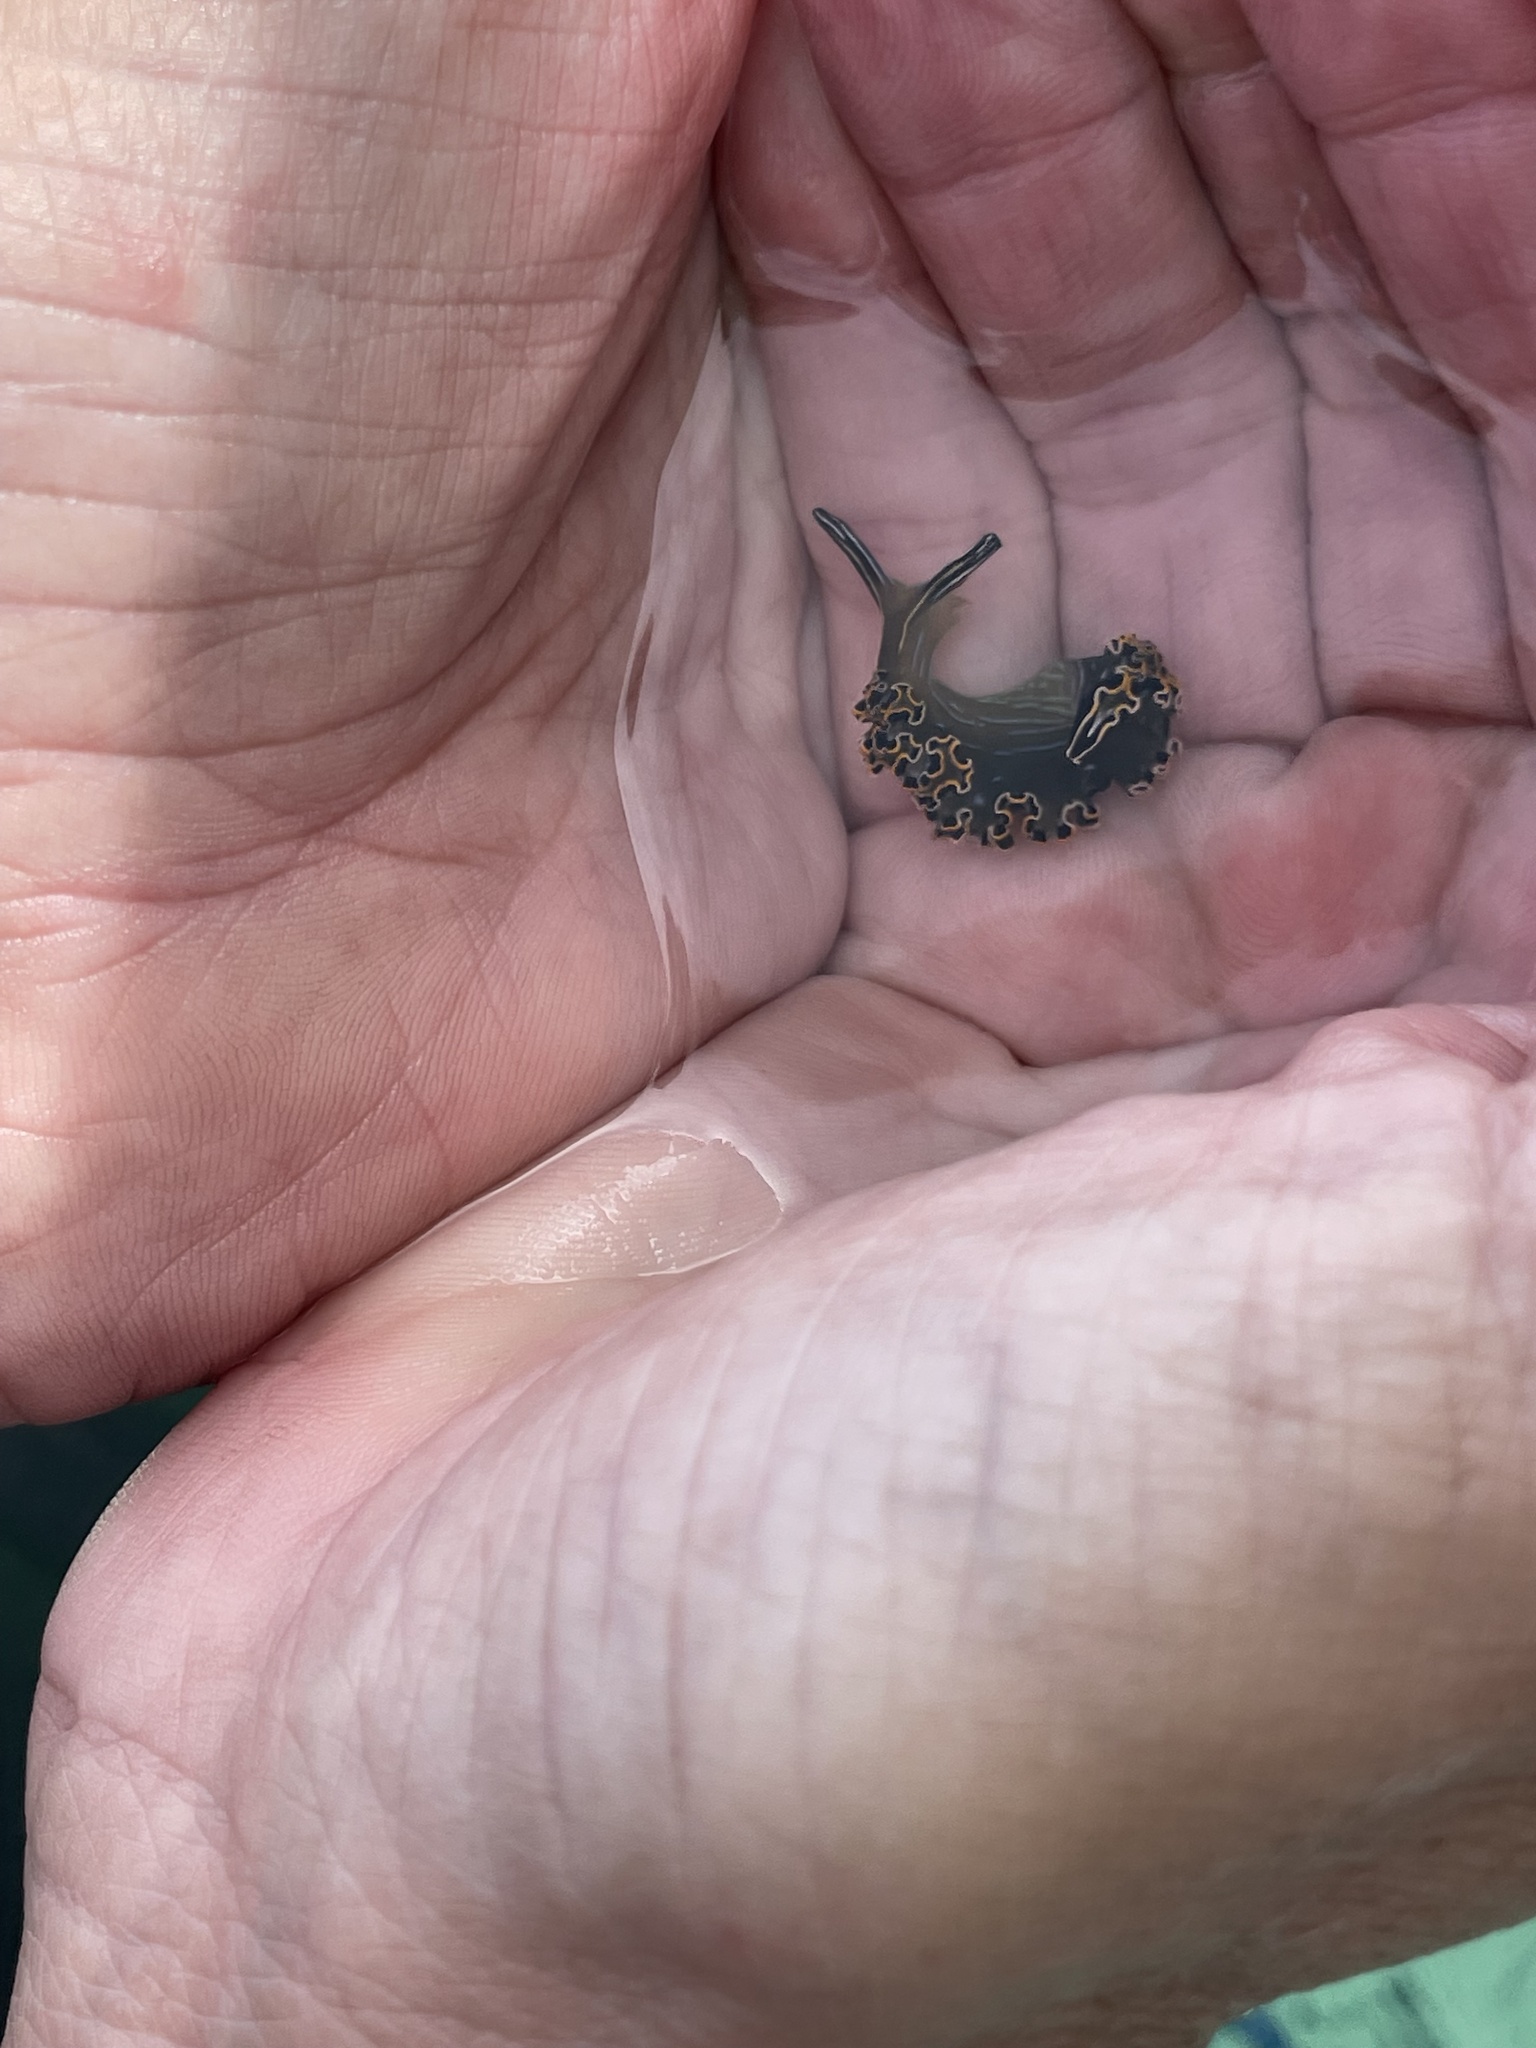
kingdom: Animalia
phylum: Mollusca
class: Gastropoda
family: Plakobranchidae
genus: Elysia
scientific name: Elysia diomedea
